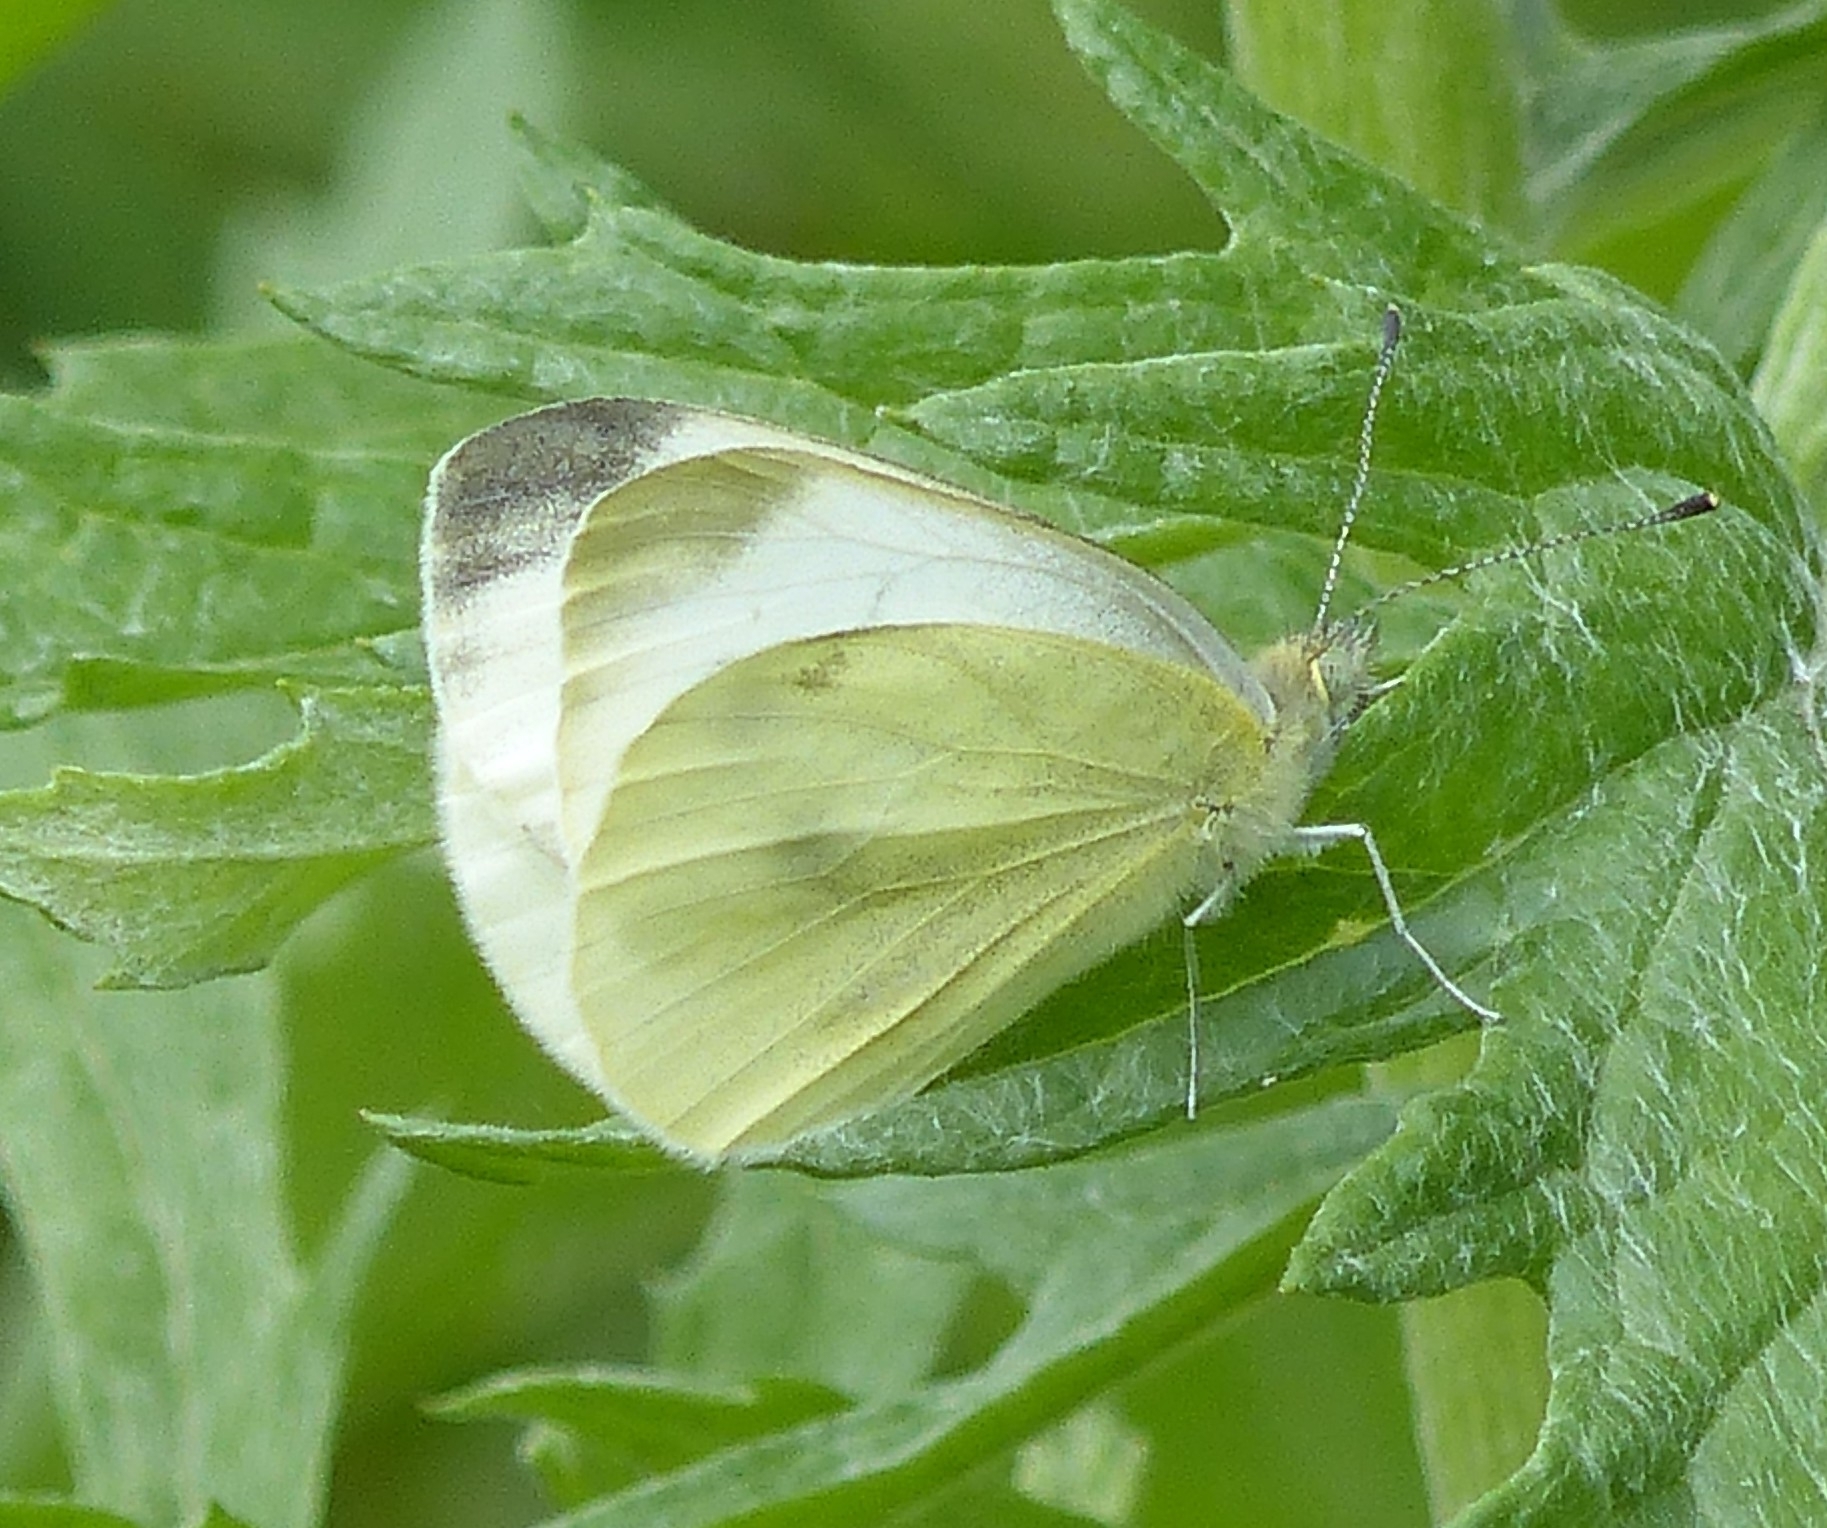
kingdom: Animalia
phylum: Arthropoda
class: Insecta
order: Lepidoptera
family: Pieridae
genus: Pieris
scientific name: Pieris rapae
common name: Small white
